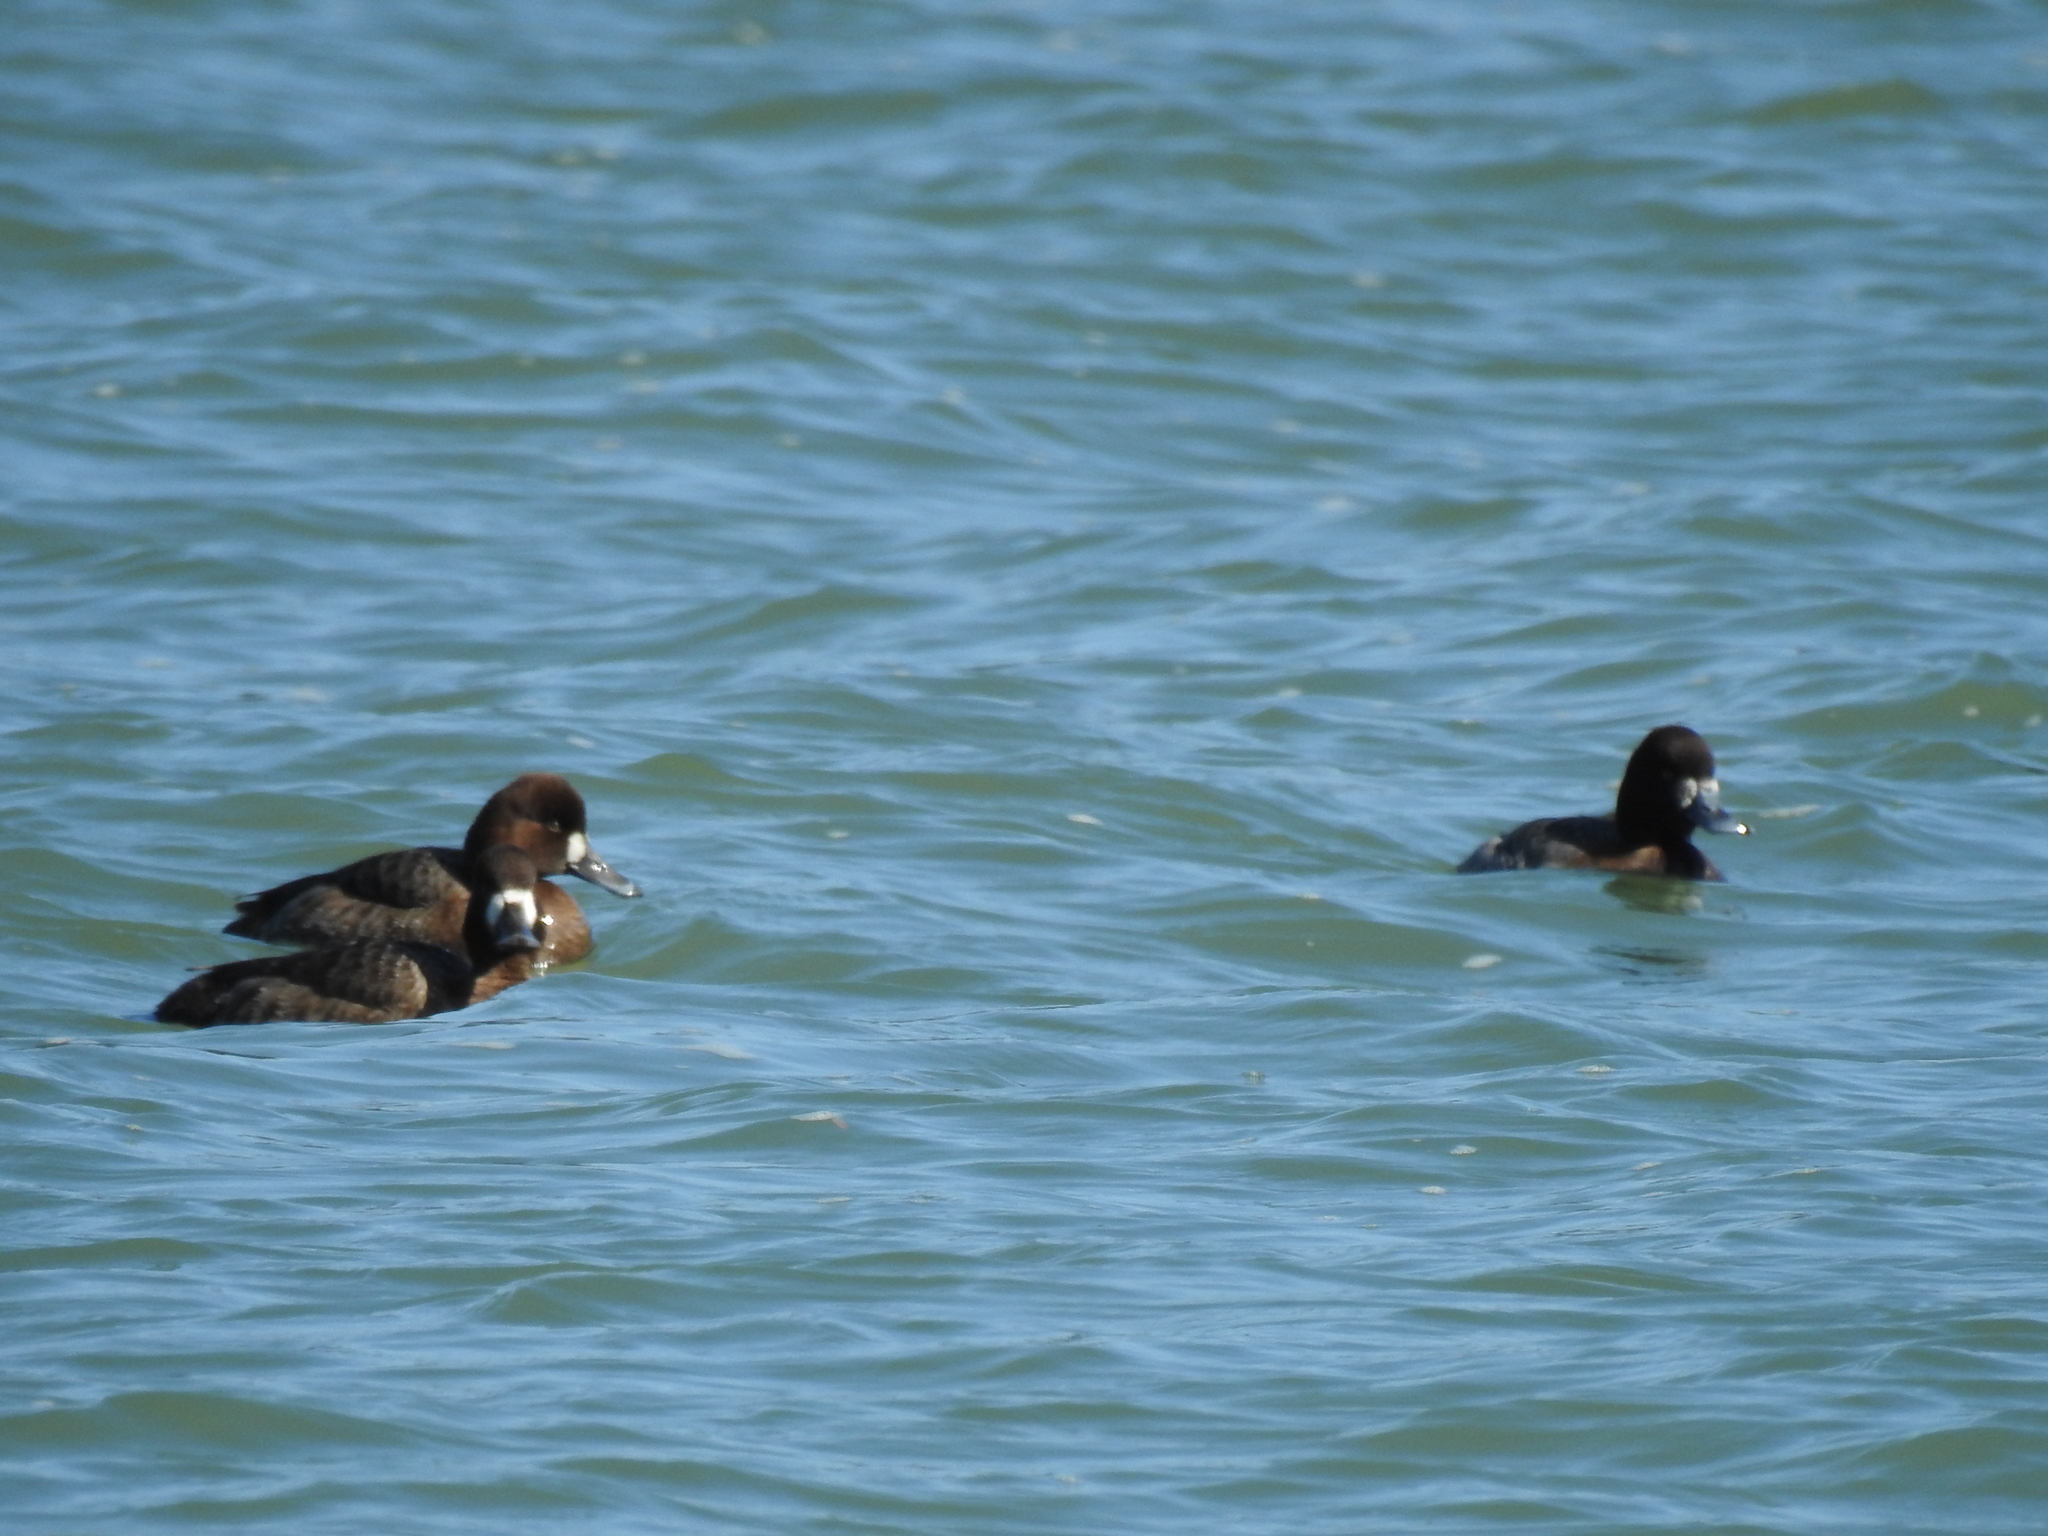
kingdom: Animalia
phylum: Chordata
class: Aves
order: Anseriformes
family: Anatidae
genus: Aythya
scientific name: Aythya marila
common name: Greater scaup
